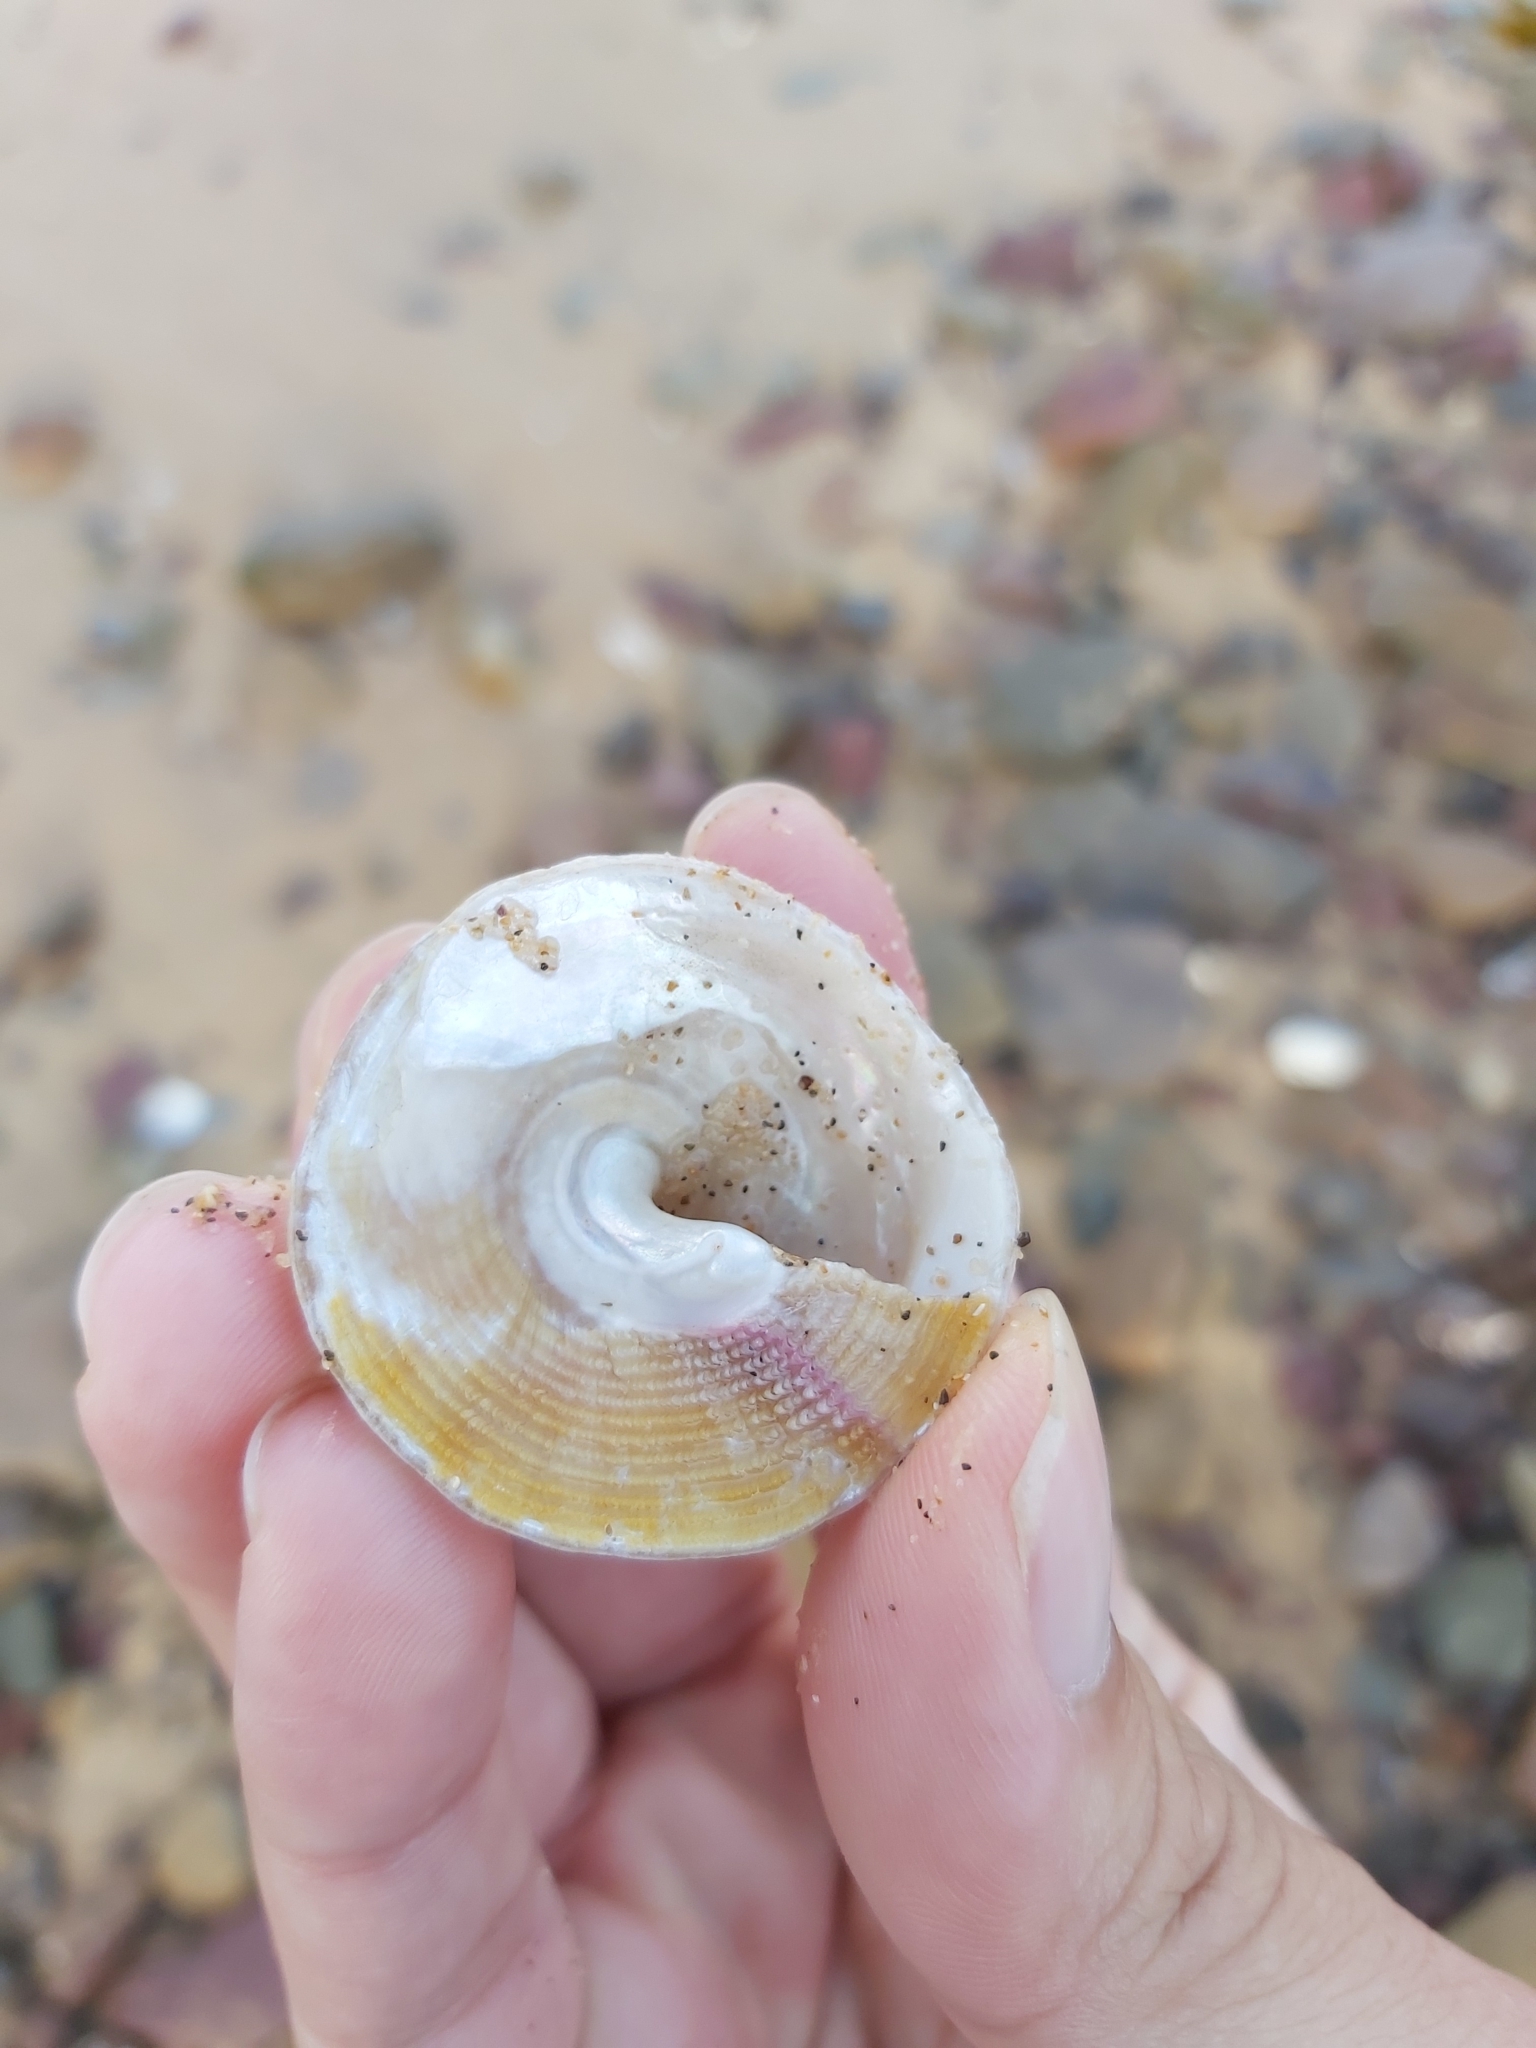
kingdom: Animalia
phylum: Mollusca
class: Gastropoda
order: Trochida
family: Turbinidae
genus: Astralium
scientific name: Astralium tentoriiforme
